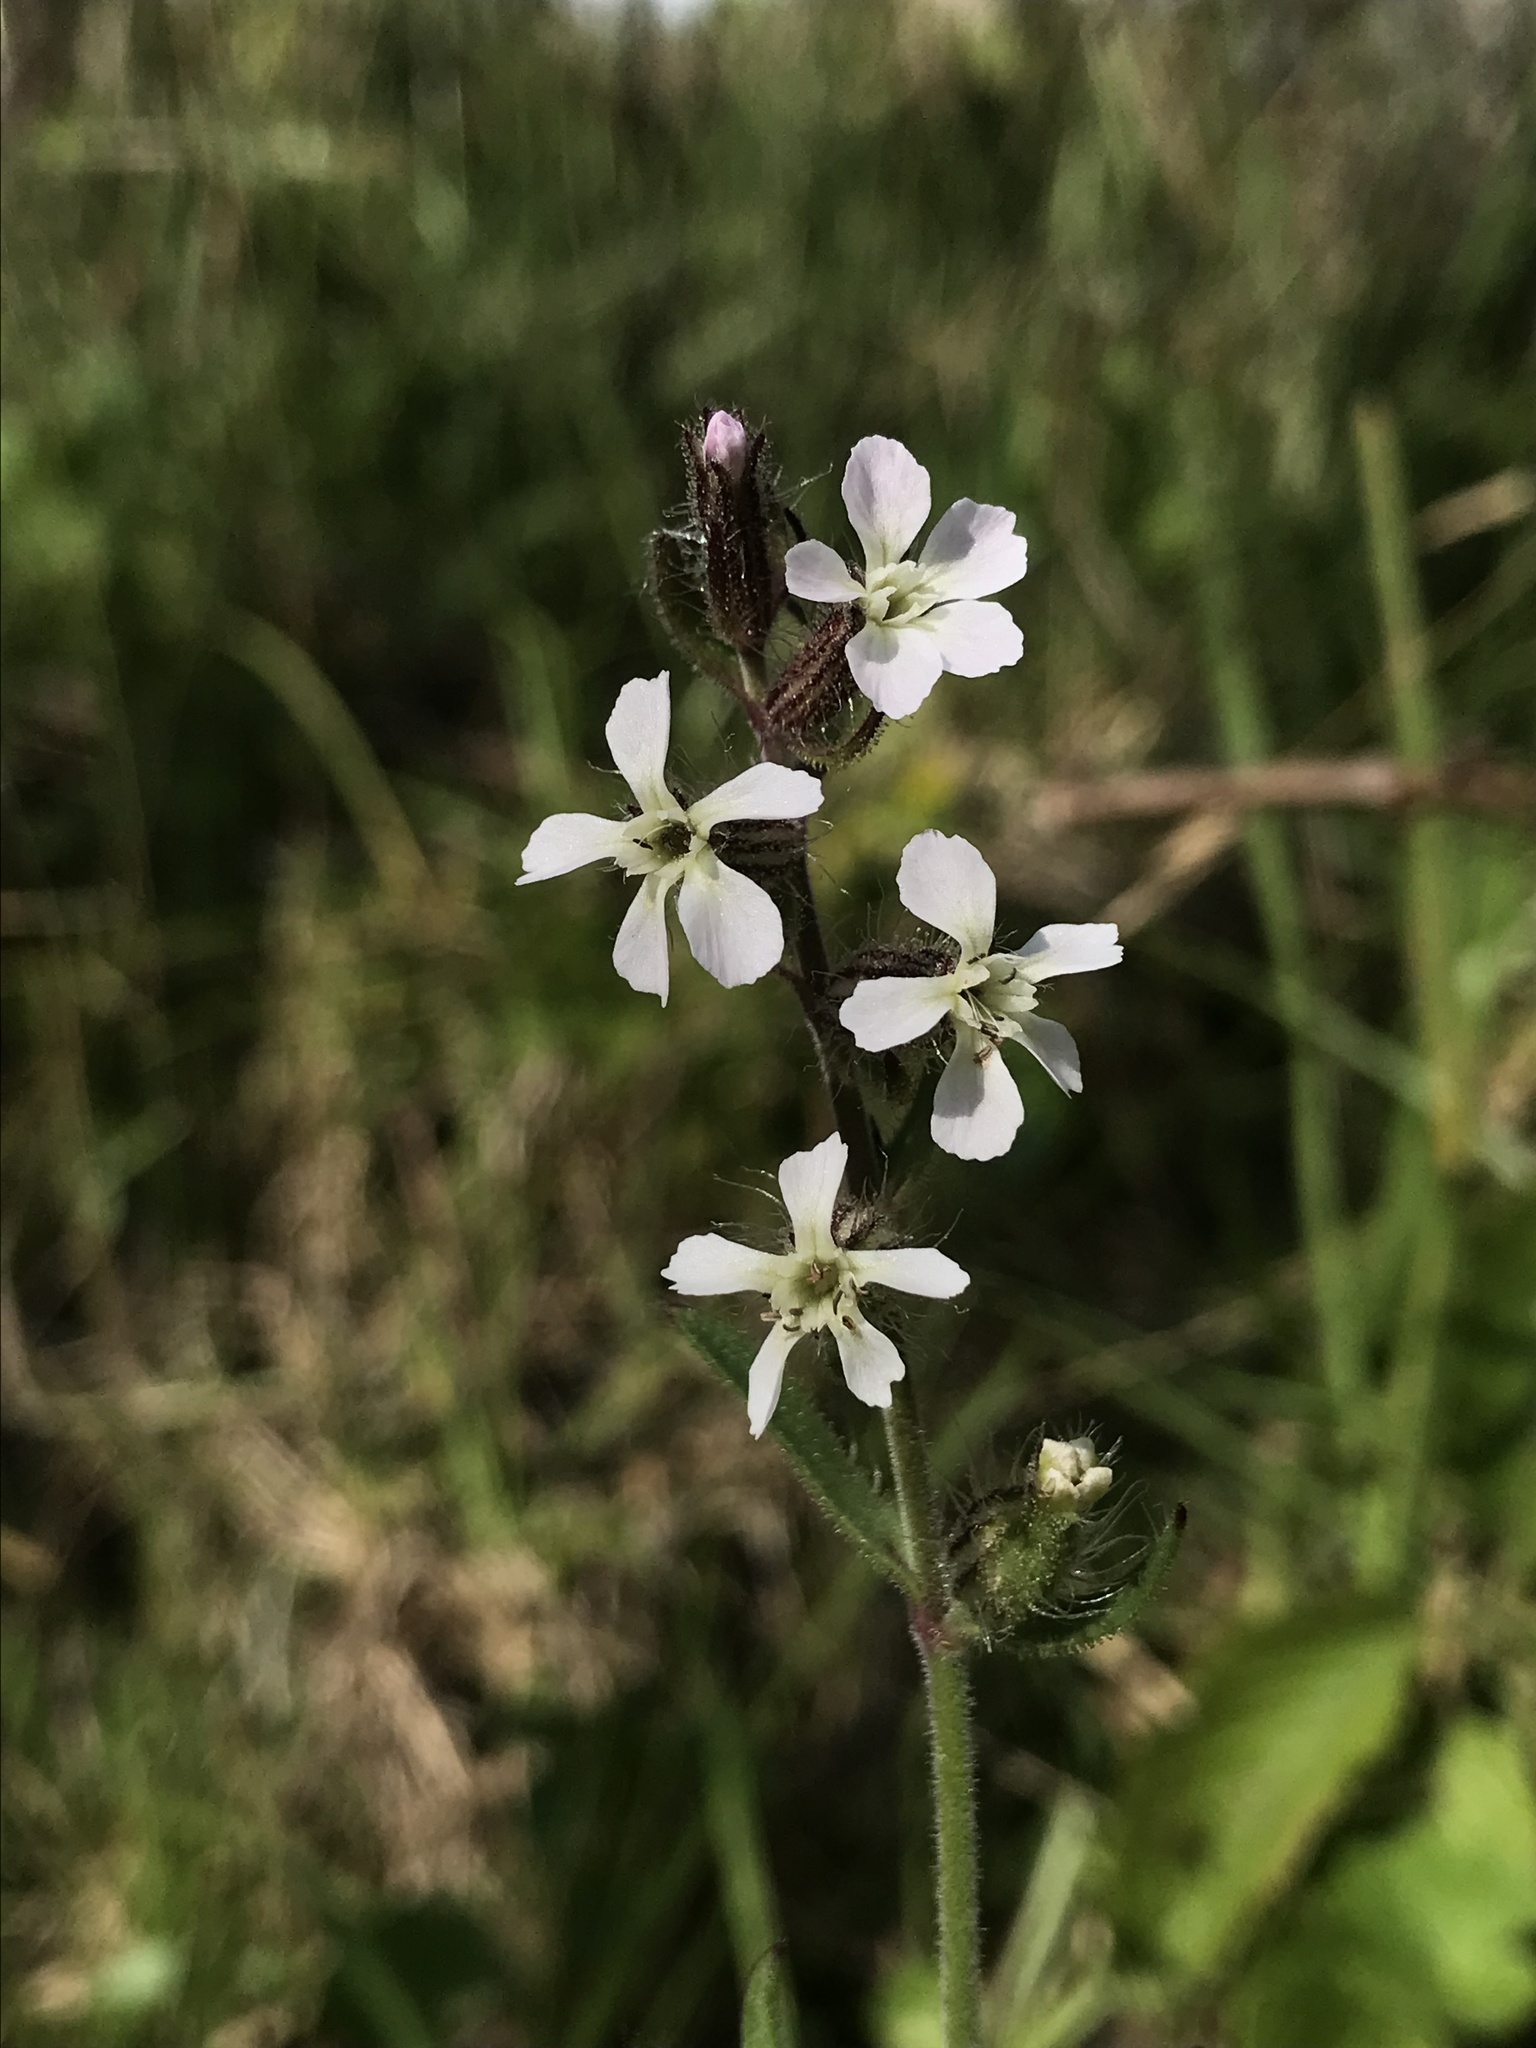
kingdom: Plantae
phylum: Tracheophyta
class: Magnoliopsida
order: Caryophyllales
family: Caryophyllaceae
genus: Silene
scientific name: Silene gallica
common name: Small-flowered catchfly
